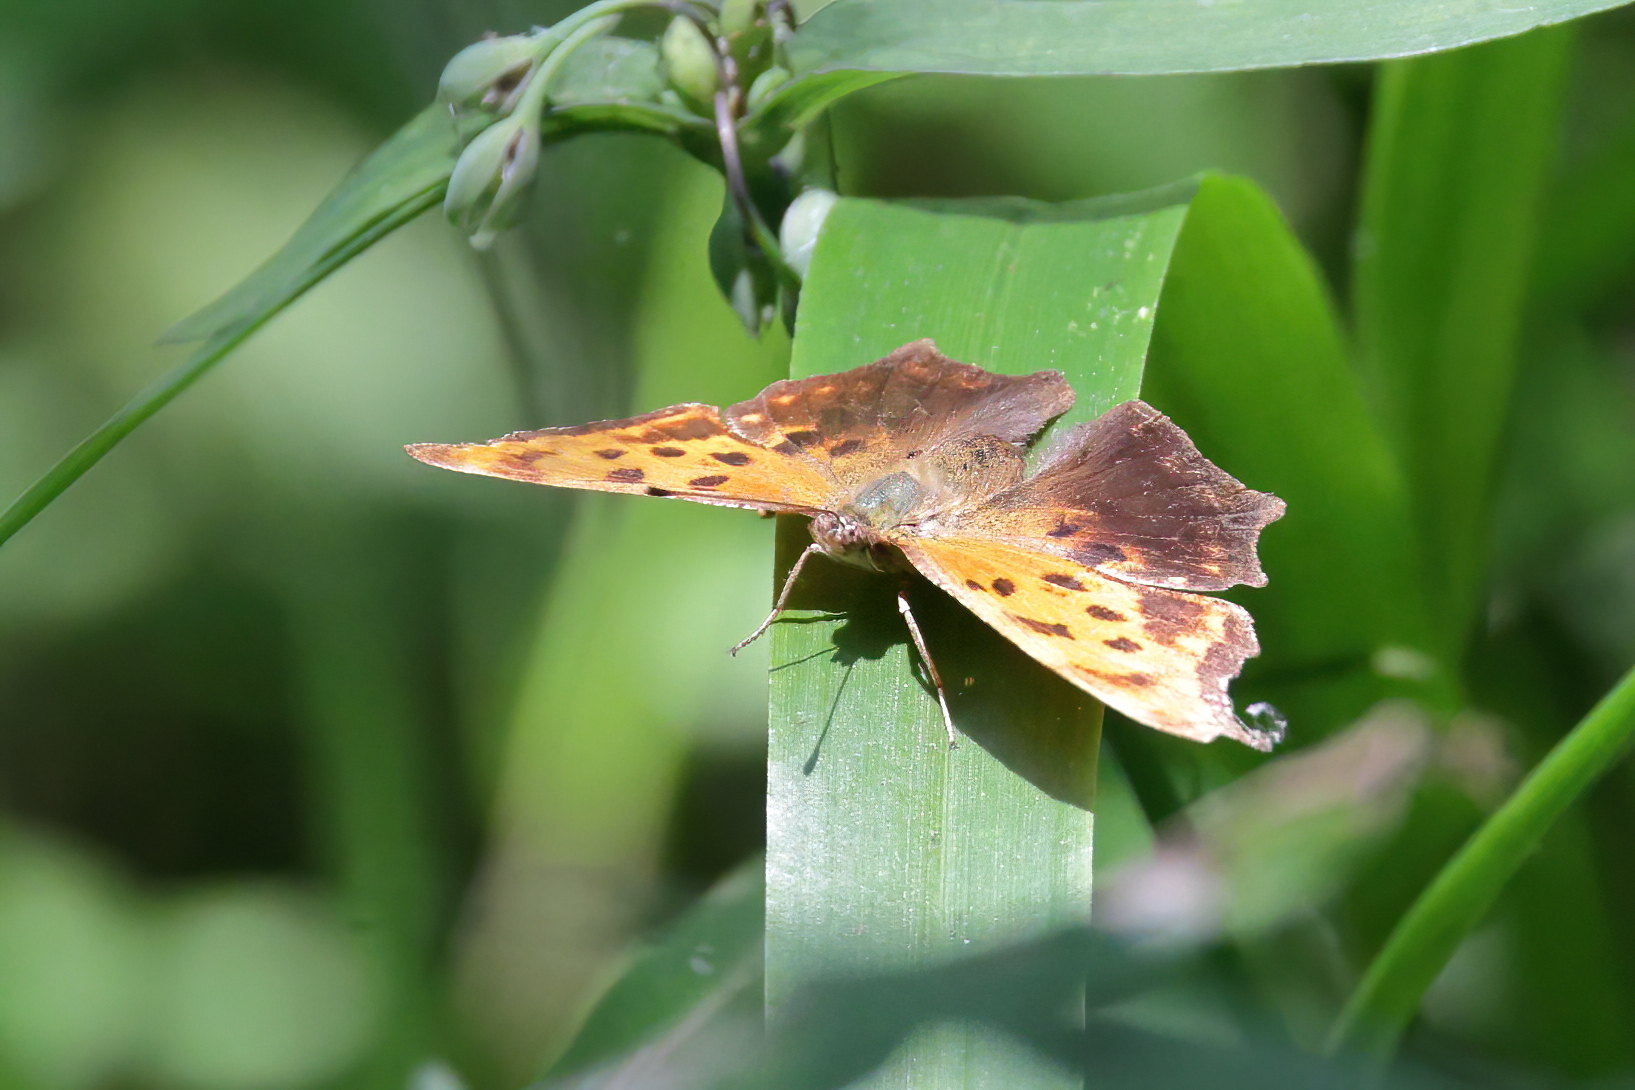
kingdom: Animalia
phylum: Arthropoda
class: Insecta
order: Lepidoptera
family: Nymphalidae
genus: Polygonia
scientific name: Polygonia interrogationis
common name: Question mark
